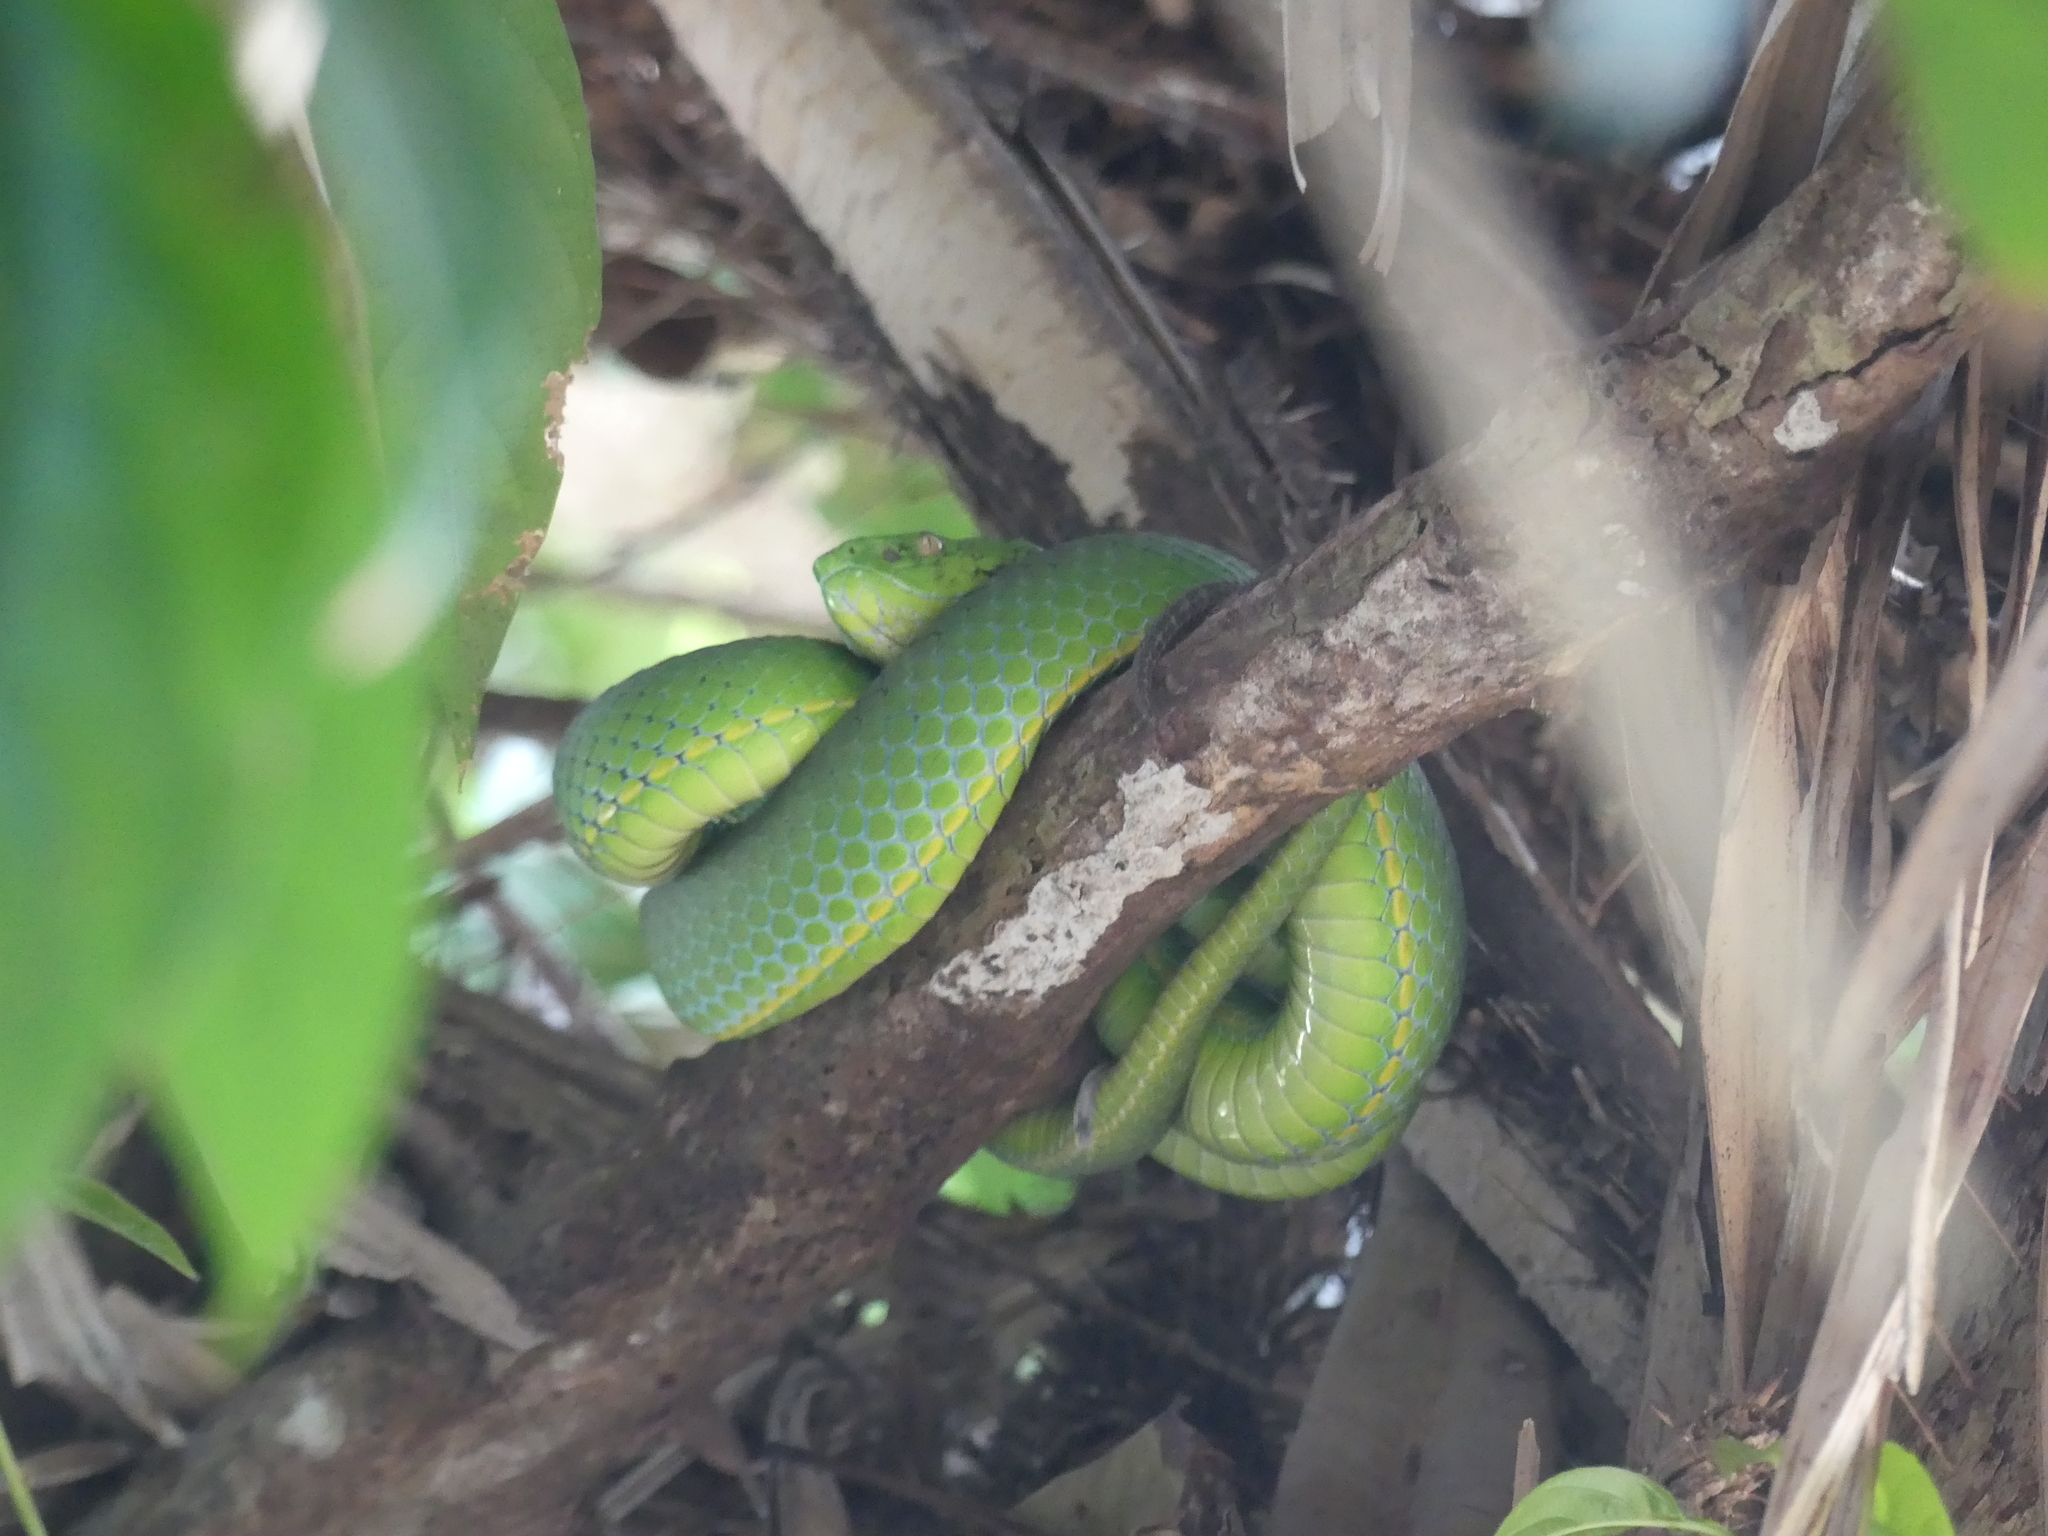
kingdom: Animalia
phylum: Chordata
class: Squamata
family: Viperidae
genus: Trimeresurus
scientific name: Trimeresurus vogeli
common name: Vogel's pit viper
